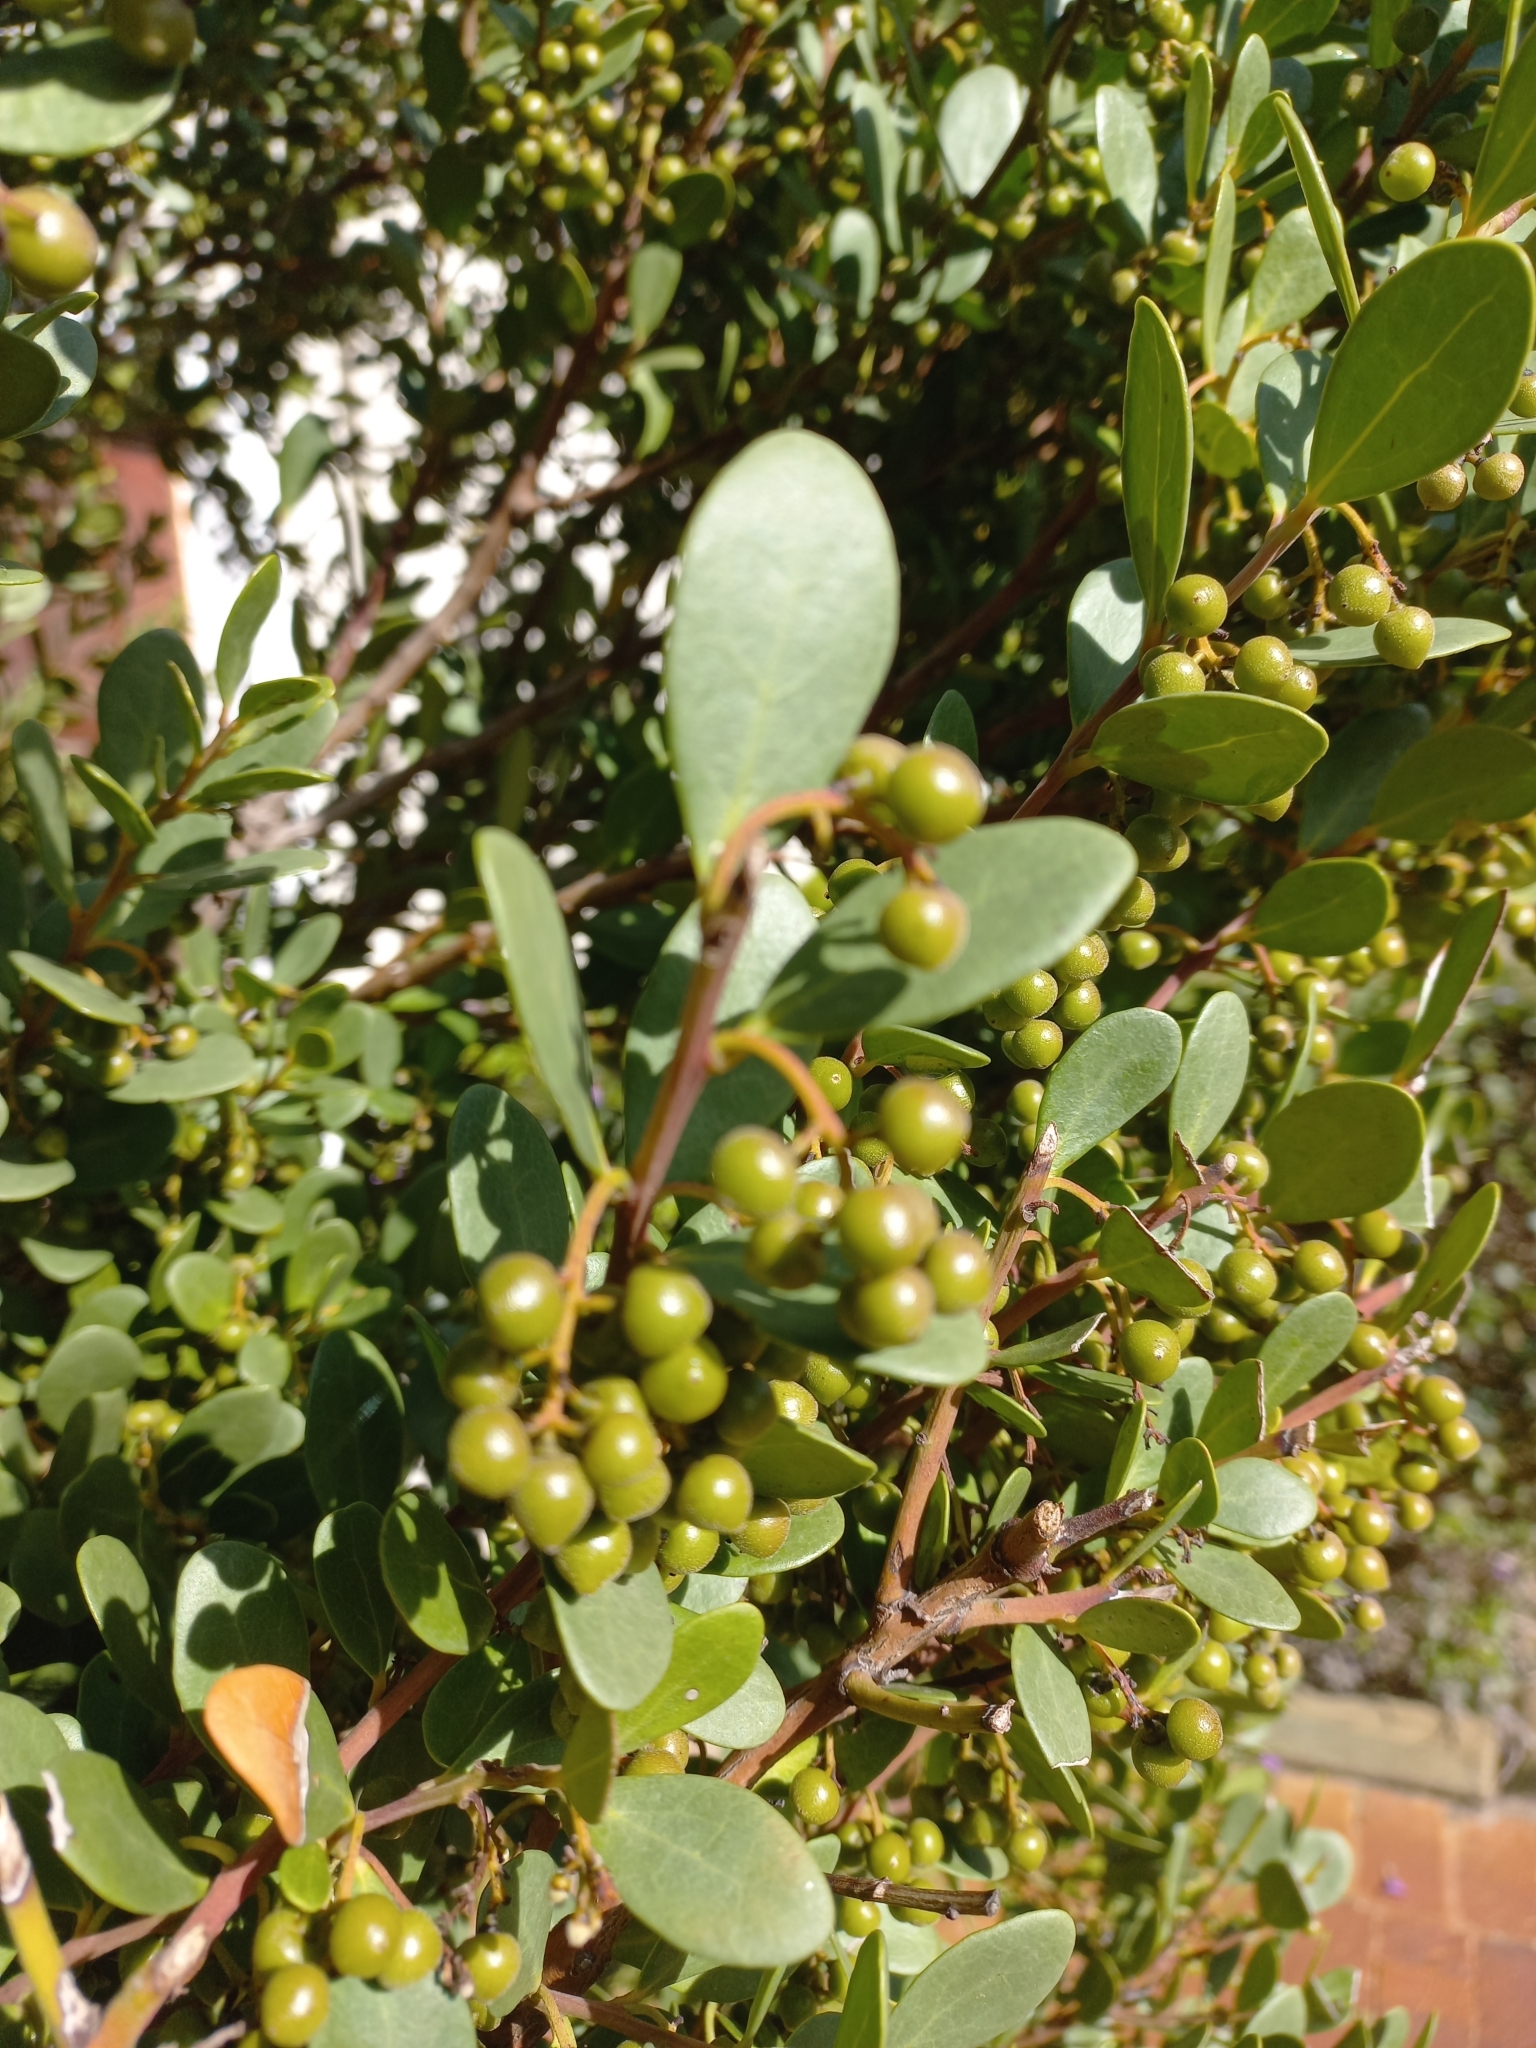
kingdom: Plantae
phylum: Tracheophyta
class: Magnoliopsida
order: Ericales
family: Ebenaceae
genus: Euclea
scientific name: Euclea racemosa
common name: Dune guarri
